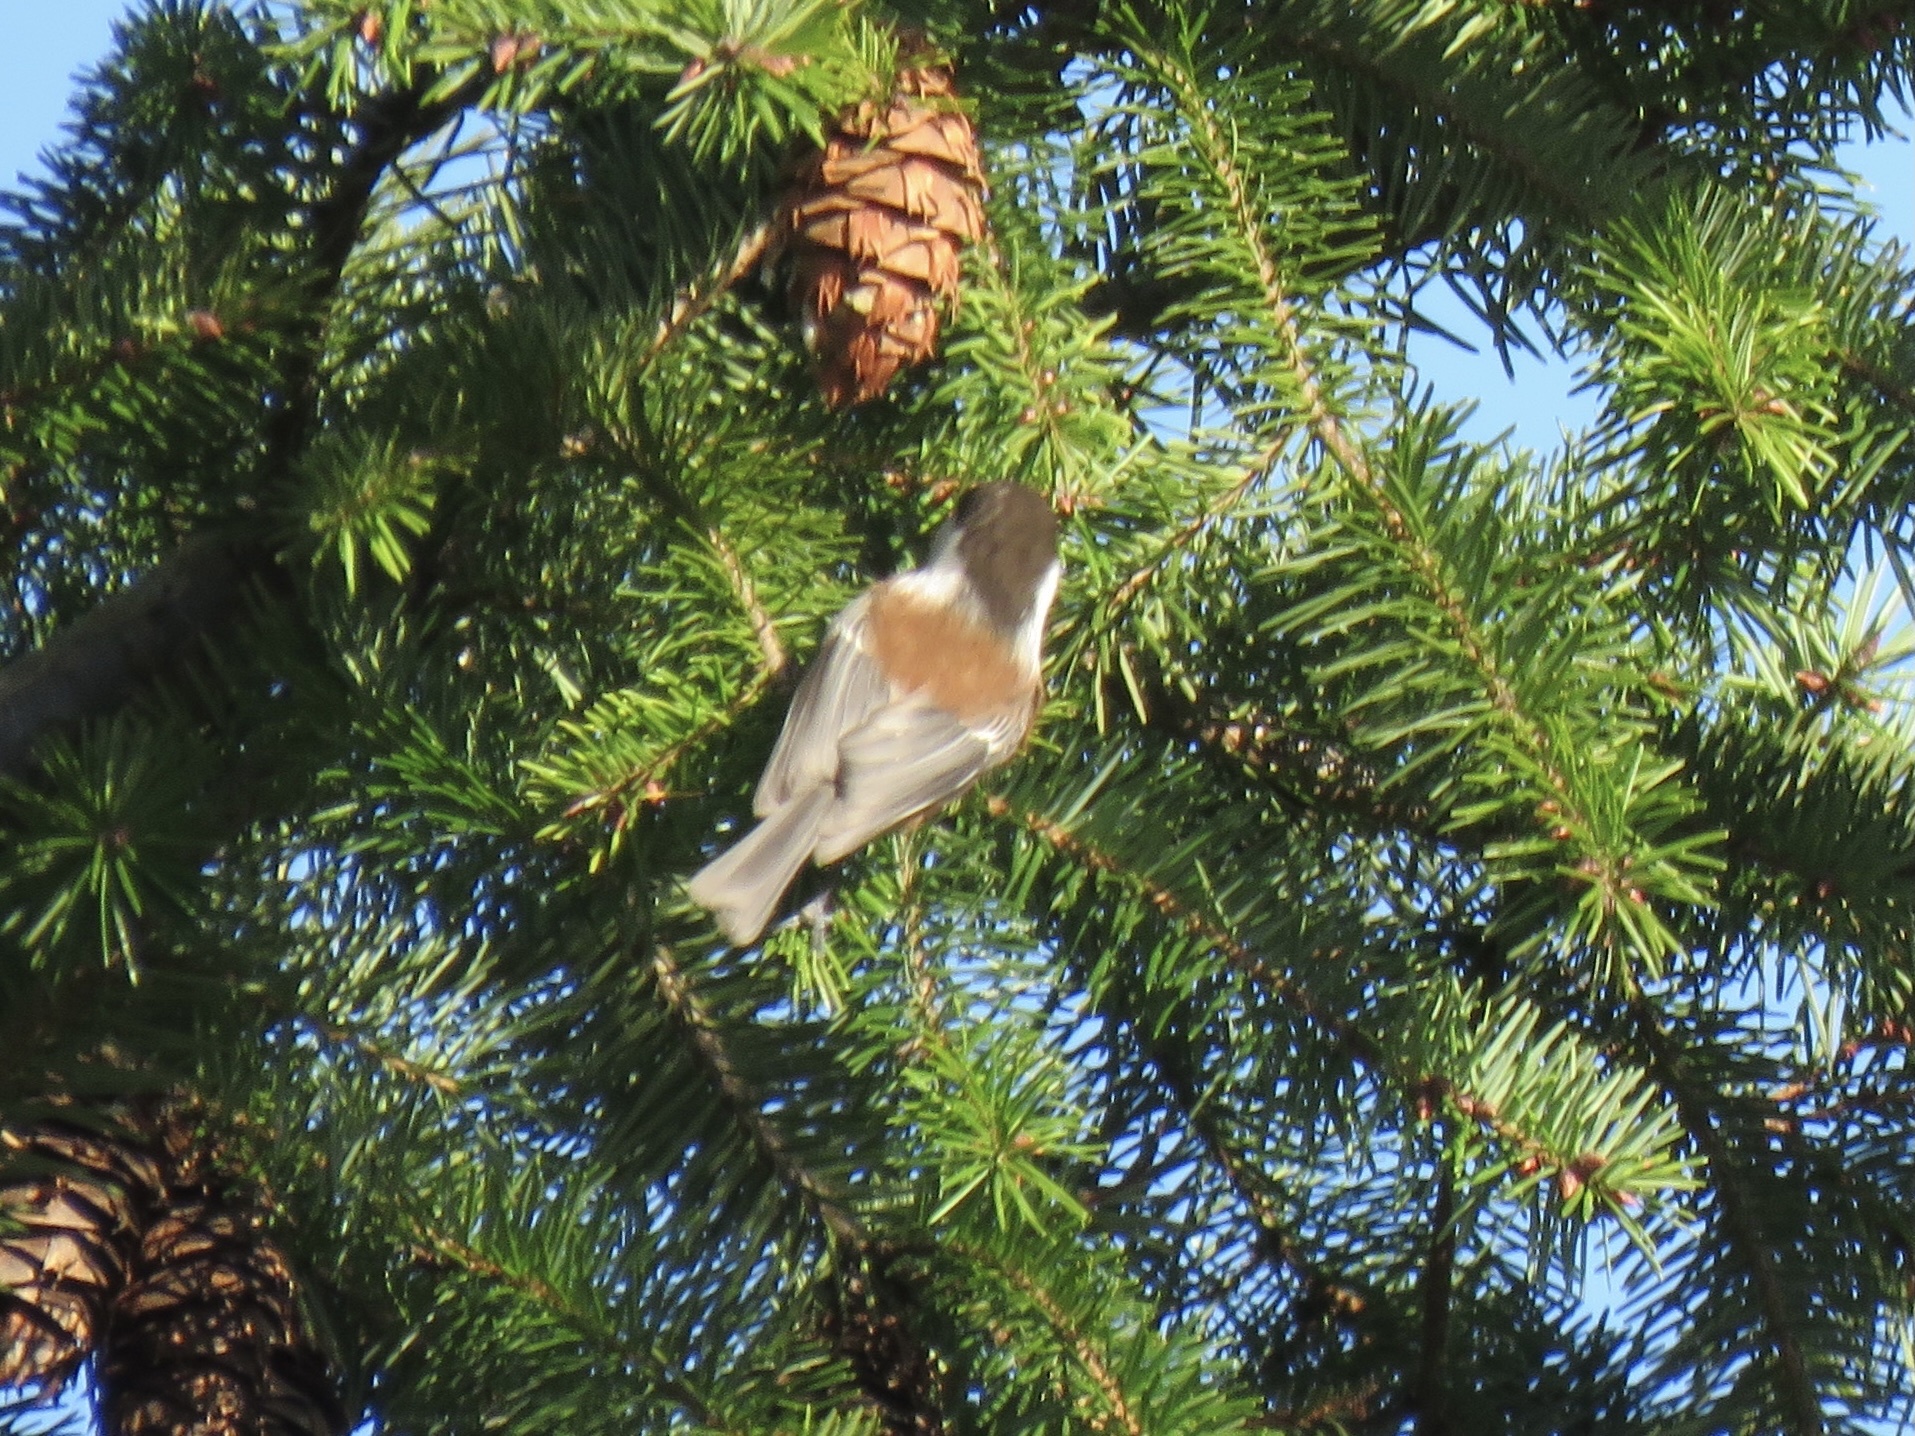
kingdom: Animalia
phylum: Chordata
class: Aves
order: Passeriformes
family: Paridae
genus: Poecile
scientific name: Poecile rufescens
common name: Chestnut-backed chickadee
